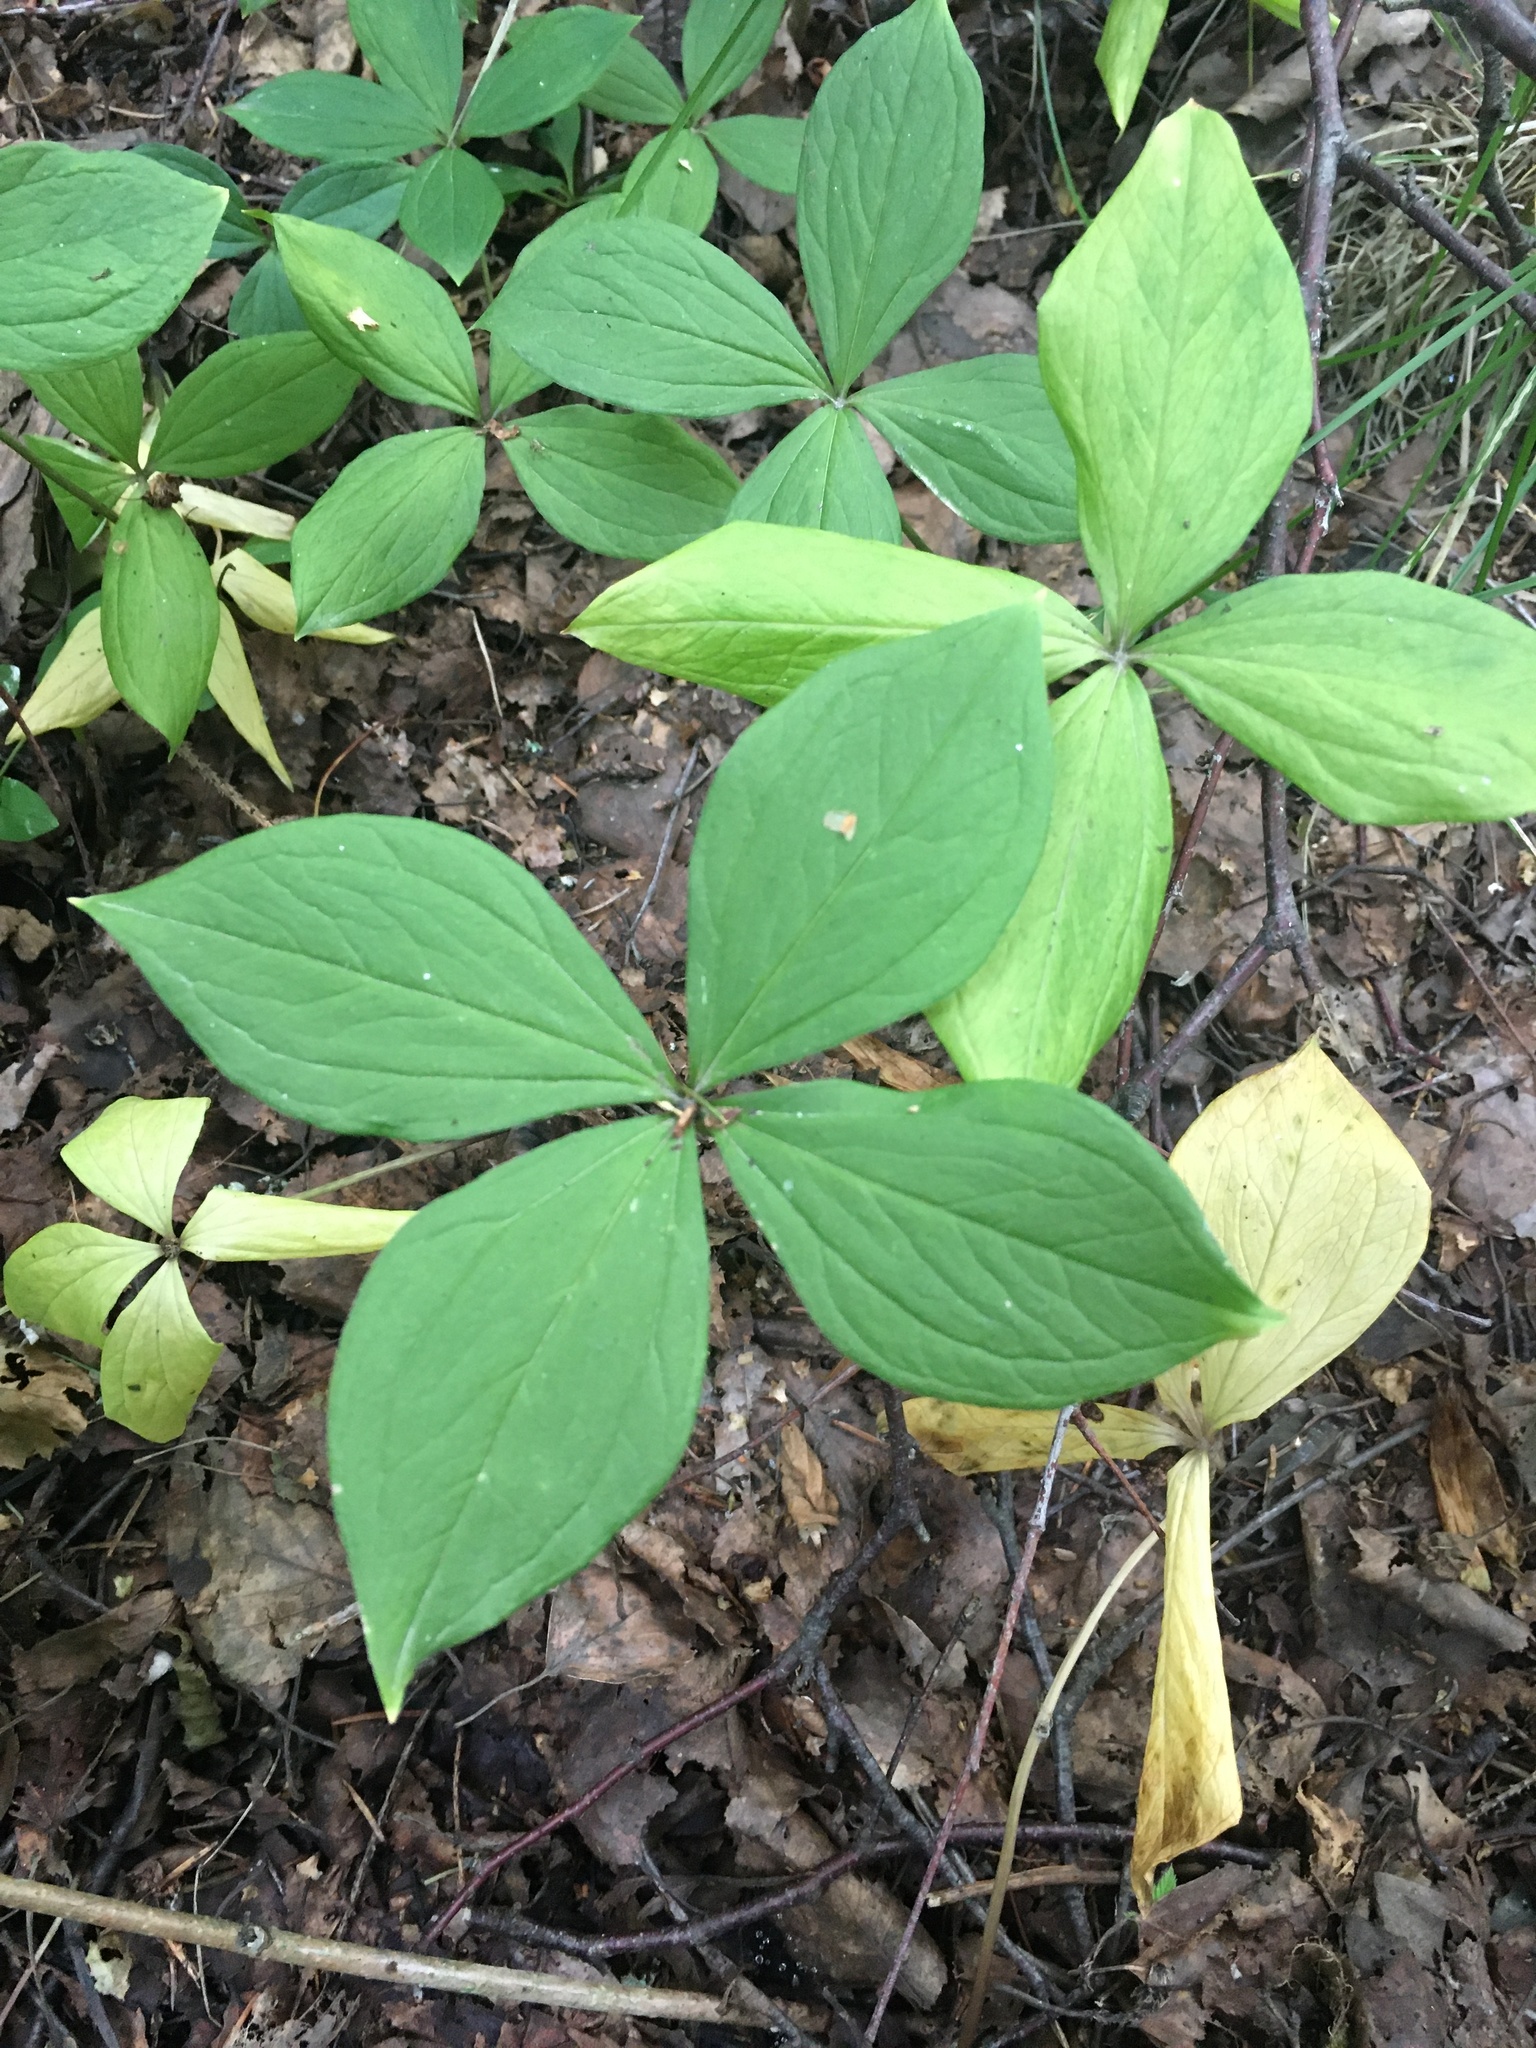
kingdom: Plantae
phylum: Tracheophyta
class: Liliopsida
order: Liliales
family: Melanthiaceae
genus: Paris
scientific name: Paris quadrifolia
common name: Herb-paris
